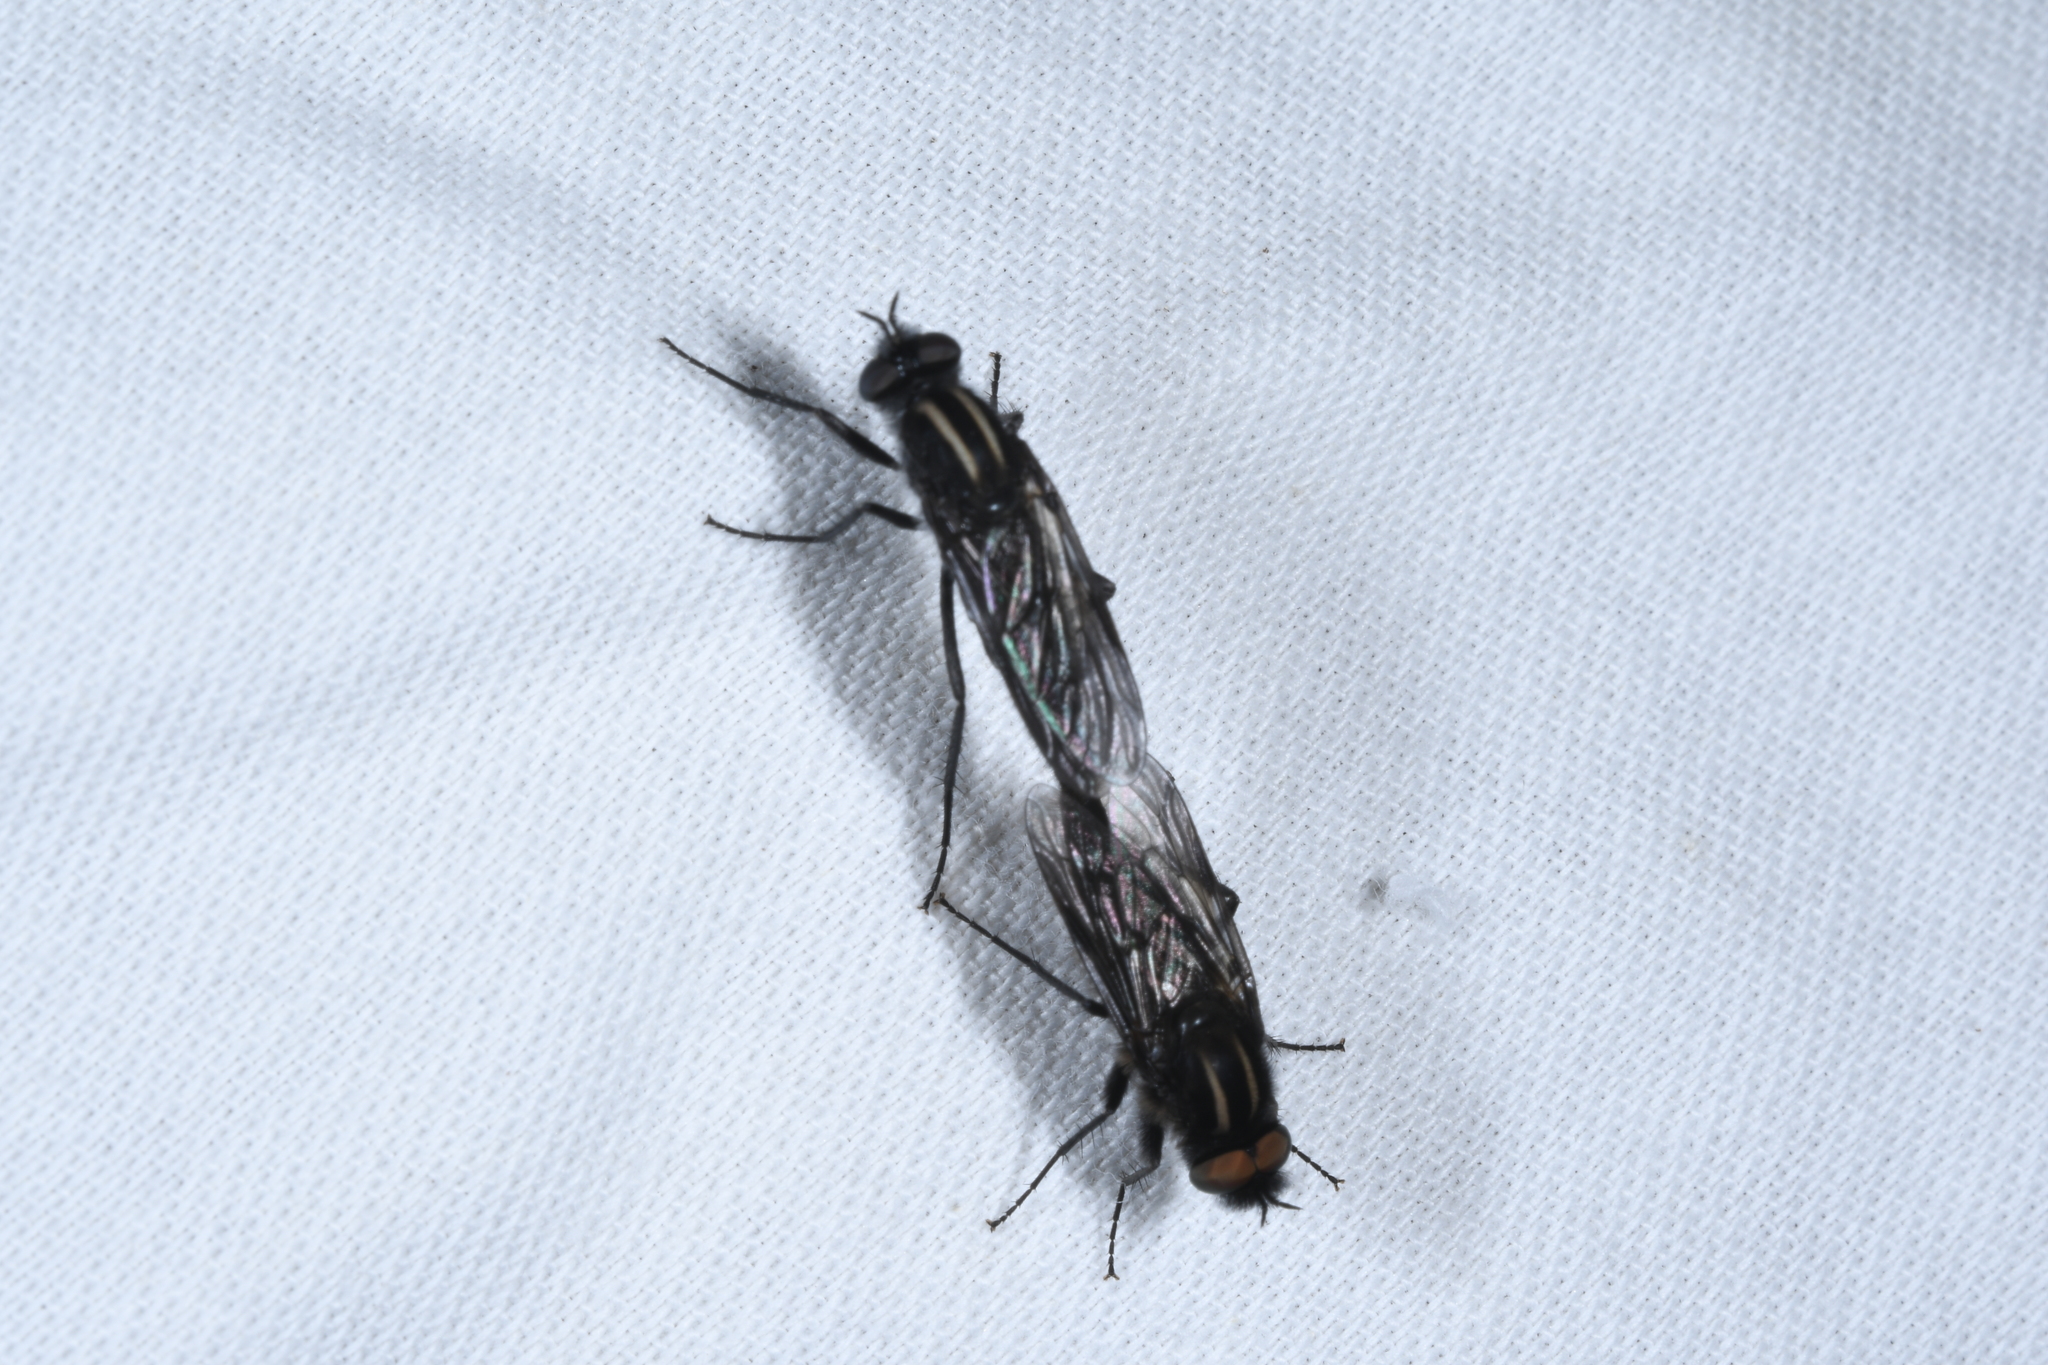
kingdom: Animalia
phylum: Arthropoda
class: Insecta
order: Diptera
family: Therevidae
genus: Thereva
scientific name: Thereva albovittata
